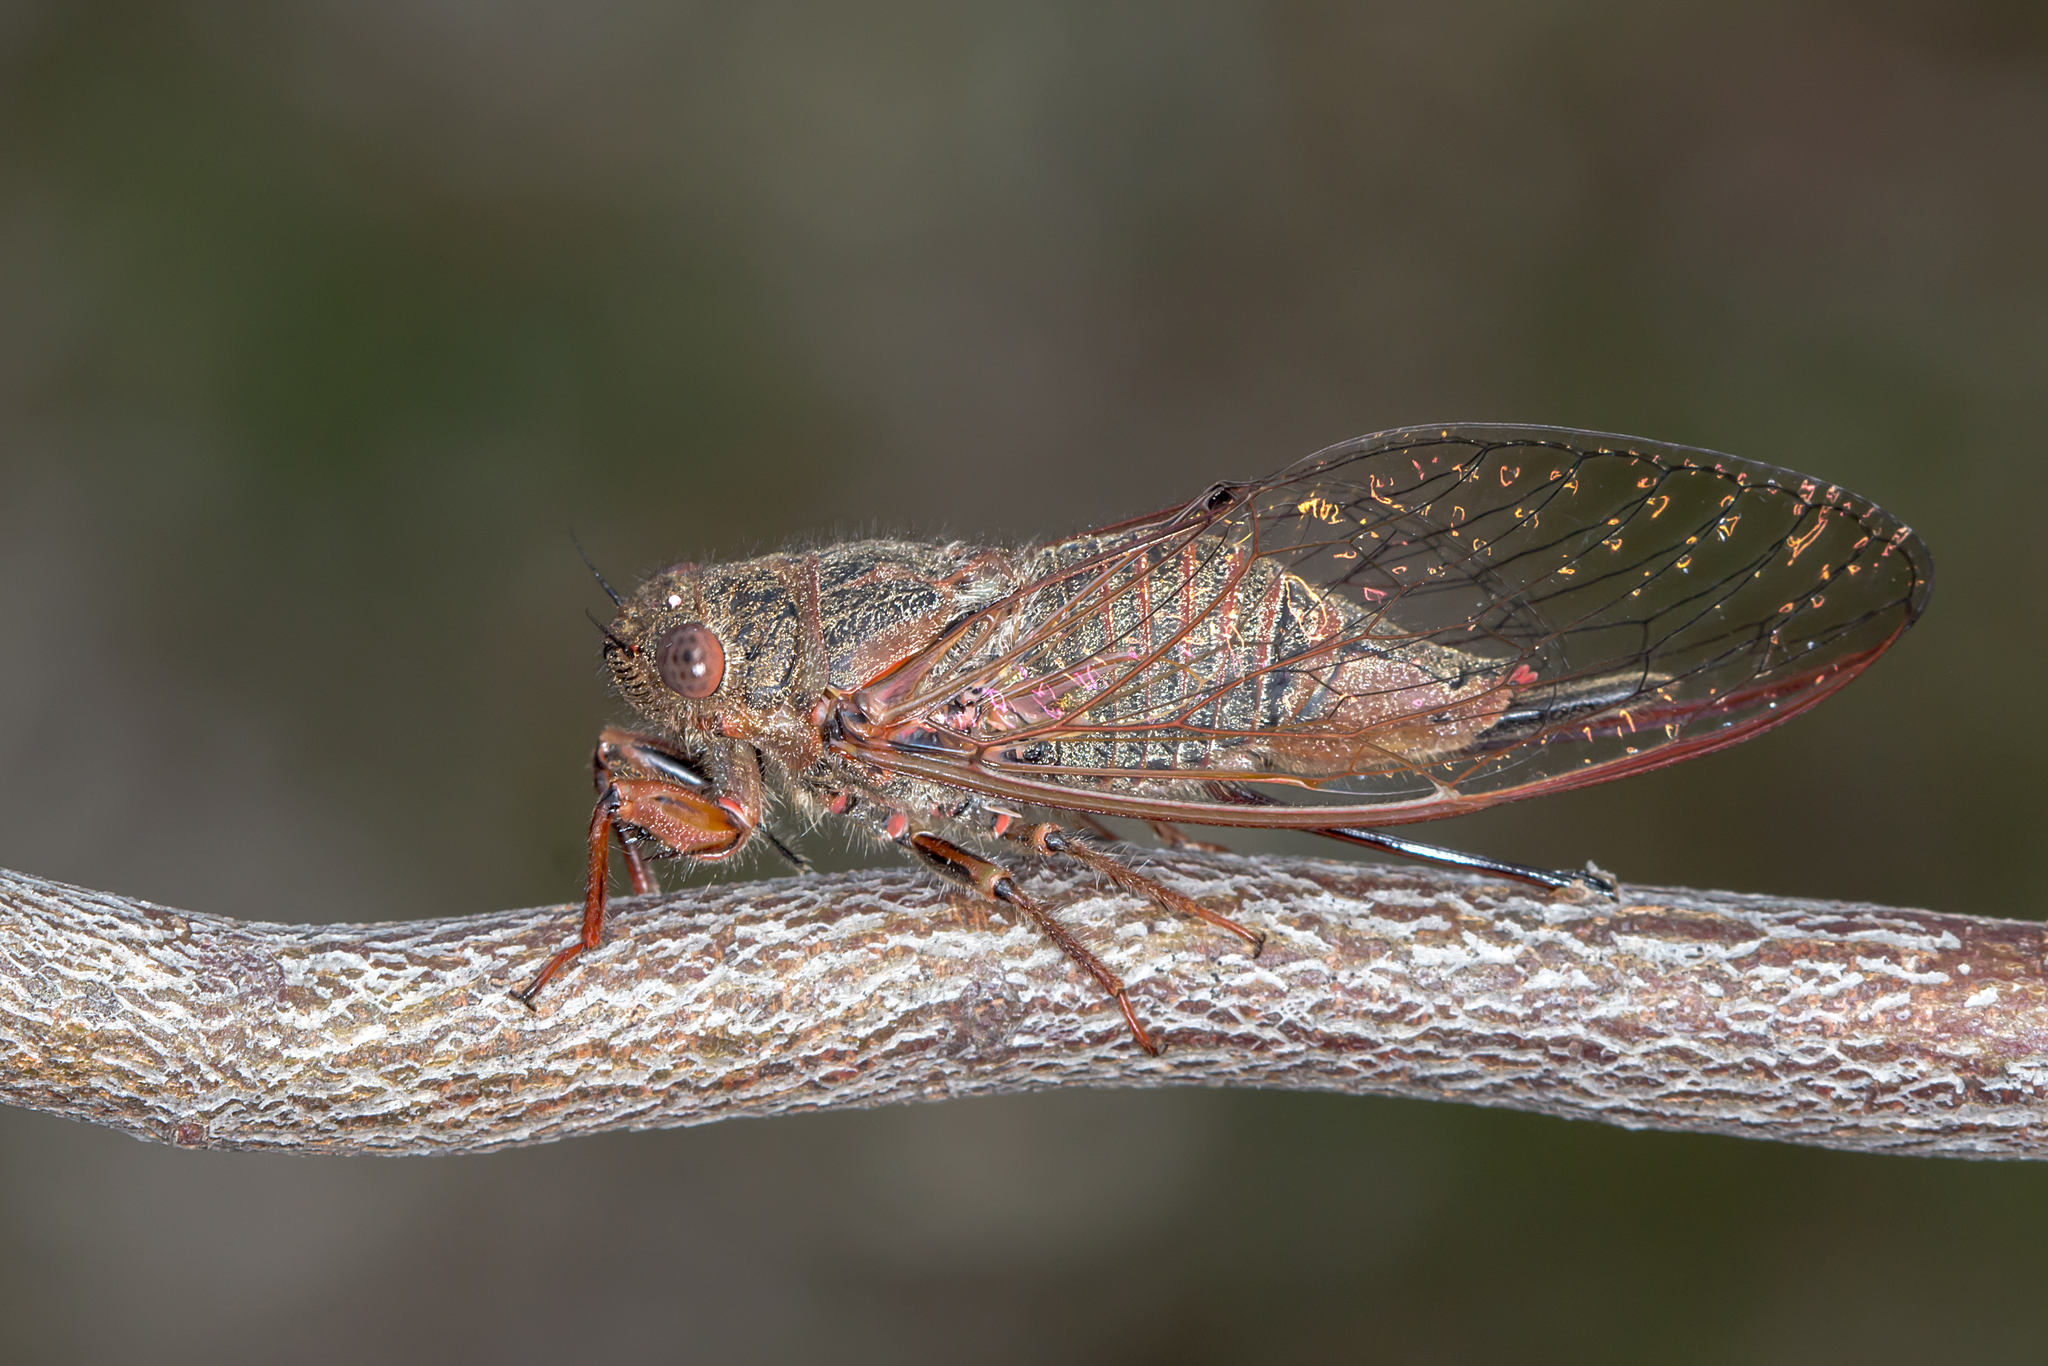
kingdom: Animalia
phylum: Arthropoda
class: Insecta
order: Hemiptera
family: Cicadidae
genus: Popplepsalta
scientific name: Popplepsalta rubristrigata
